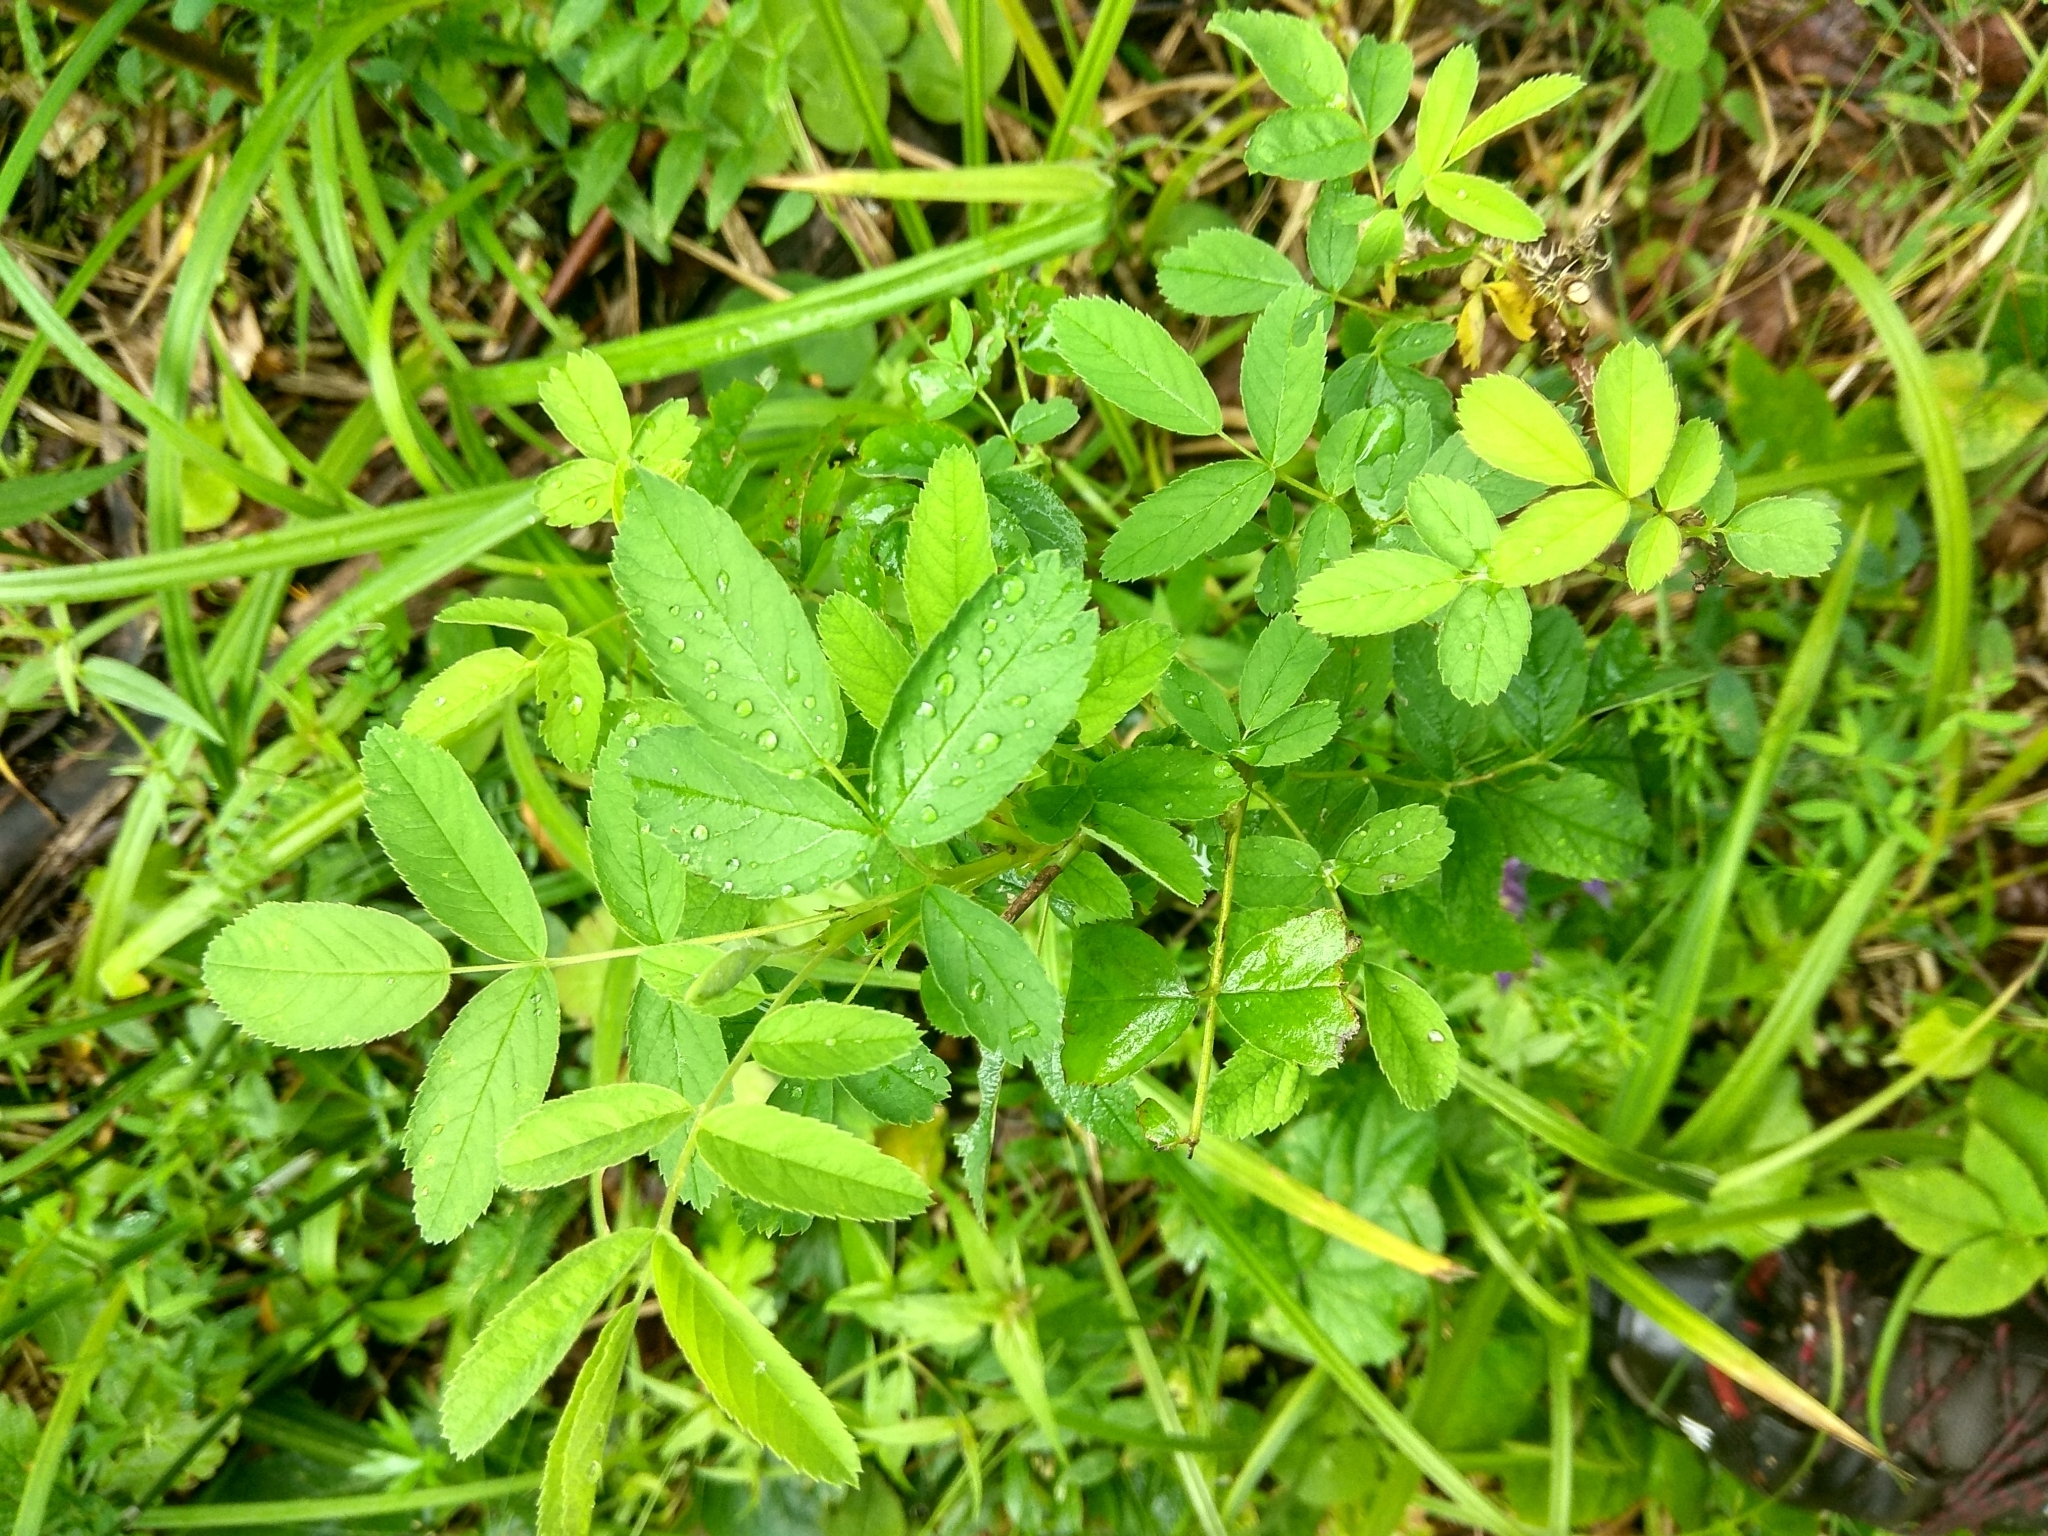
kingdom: Plantae
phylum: Tracheophyta
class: Magnoliopsida
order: Rosales
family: Rosaceae
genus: Rosa
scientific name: Rosa majalis
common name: Cinnamon rose
